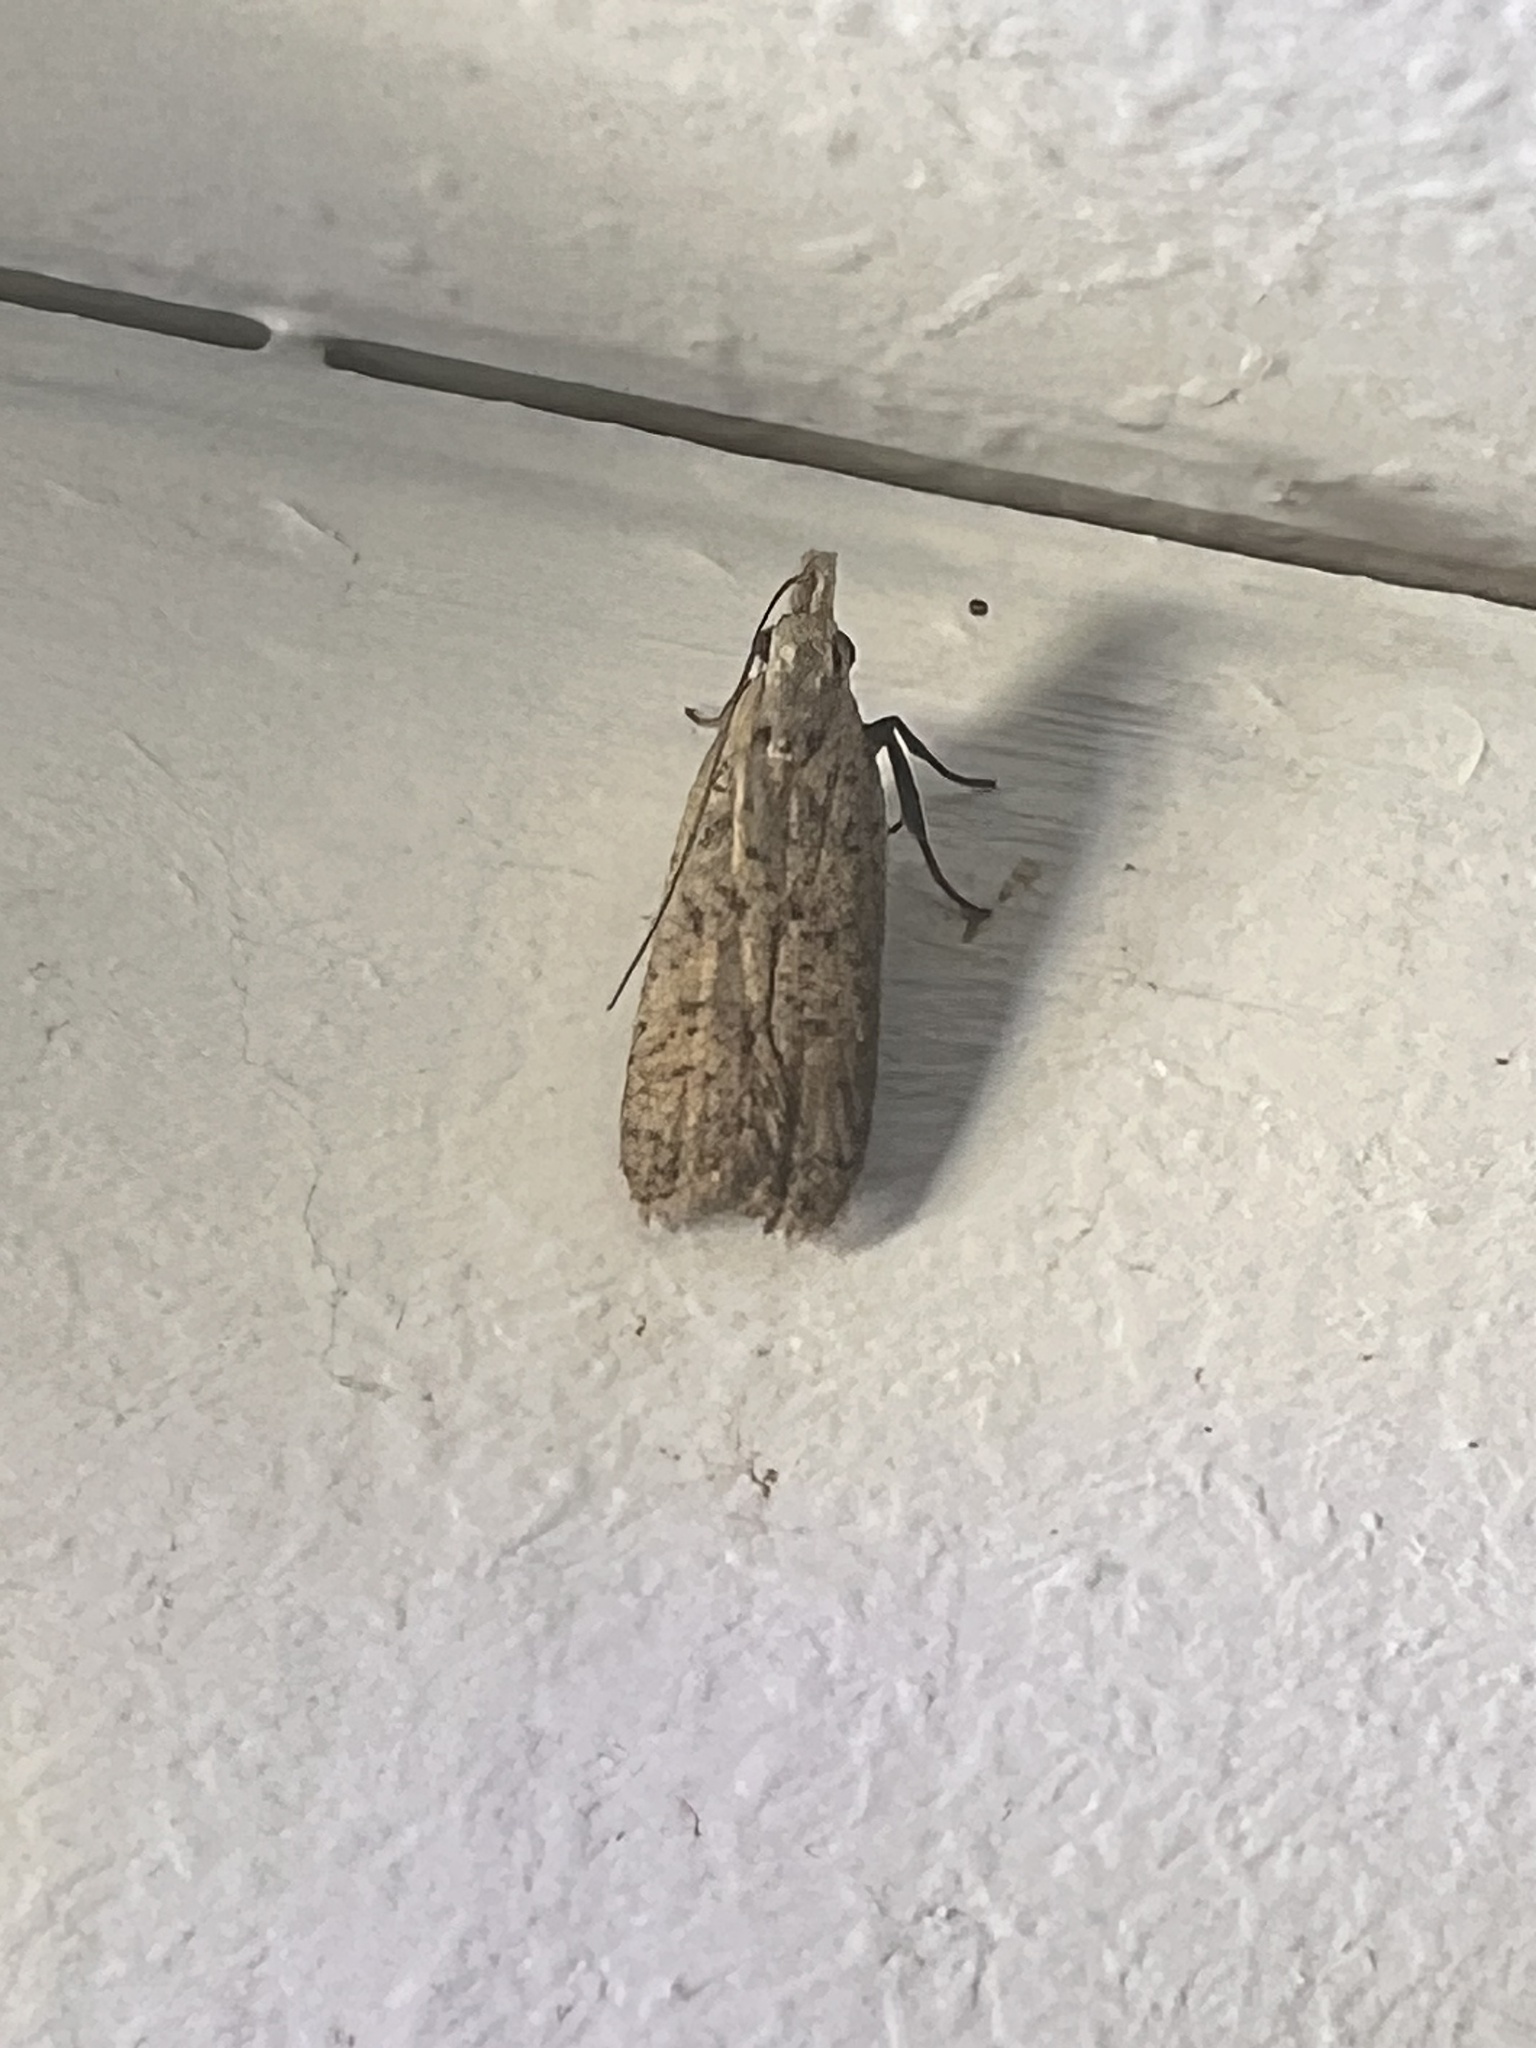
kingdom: Animalia
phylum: Arthropoda
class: Insecta
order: Lepidoptera
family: Gelechiidae
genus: Dichomeris
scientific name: Dichomeris capnites
